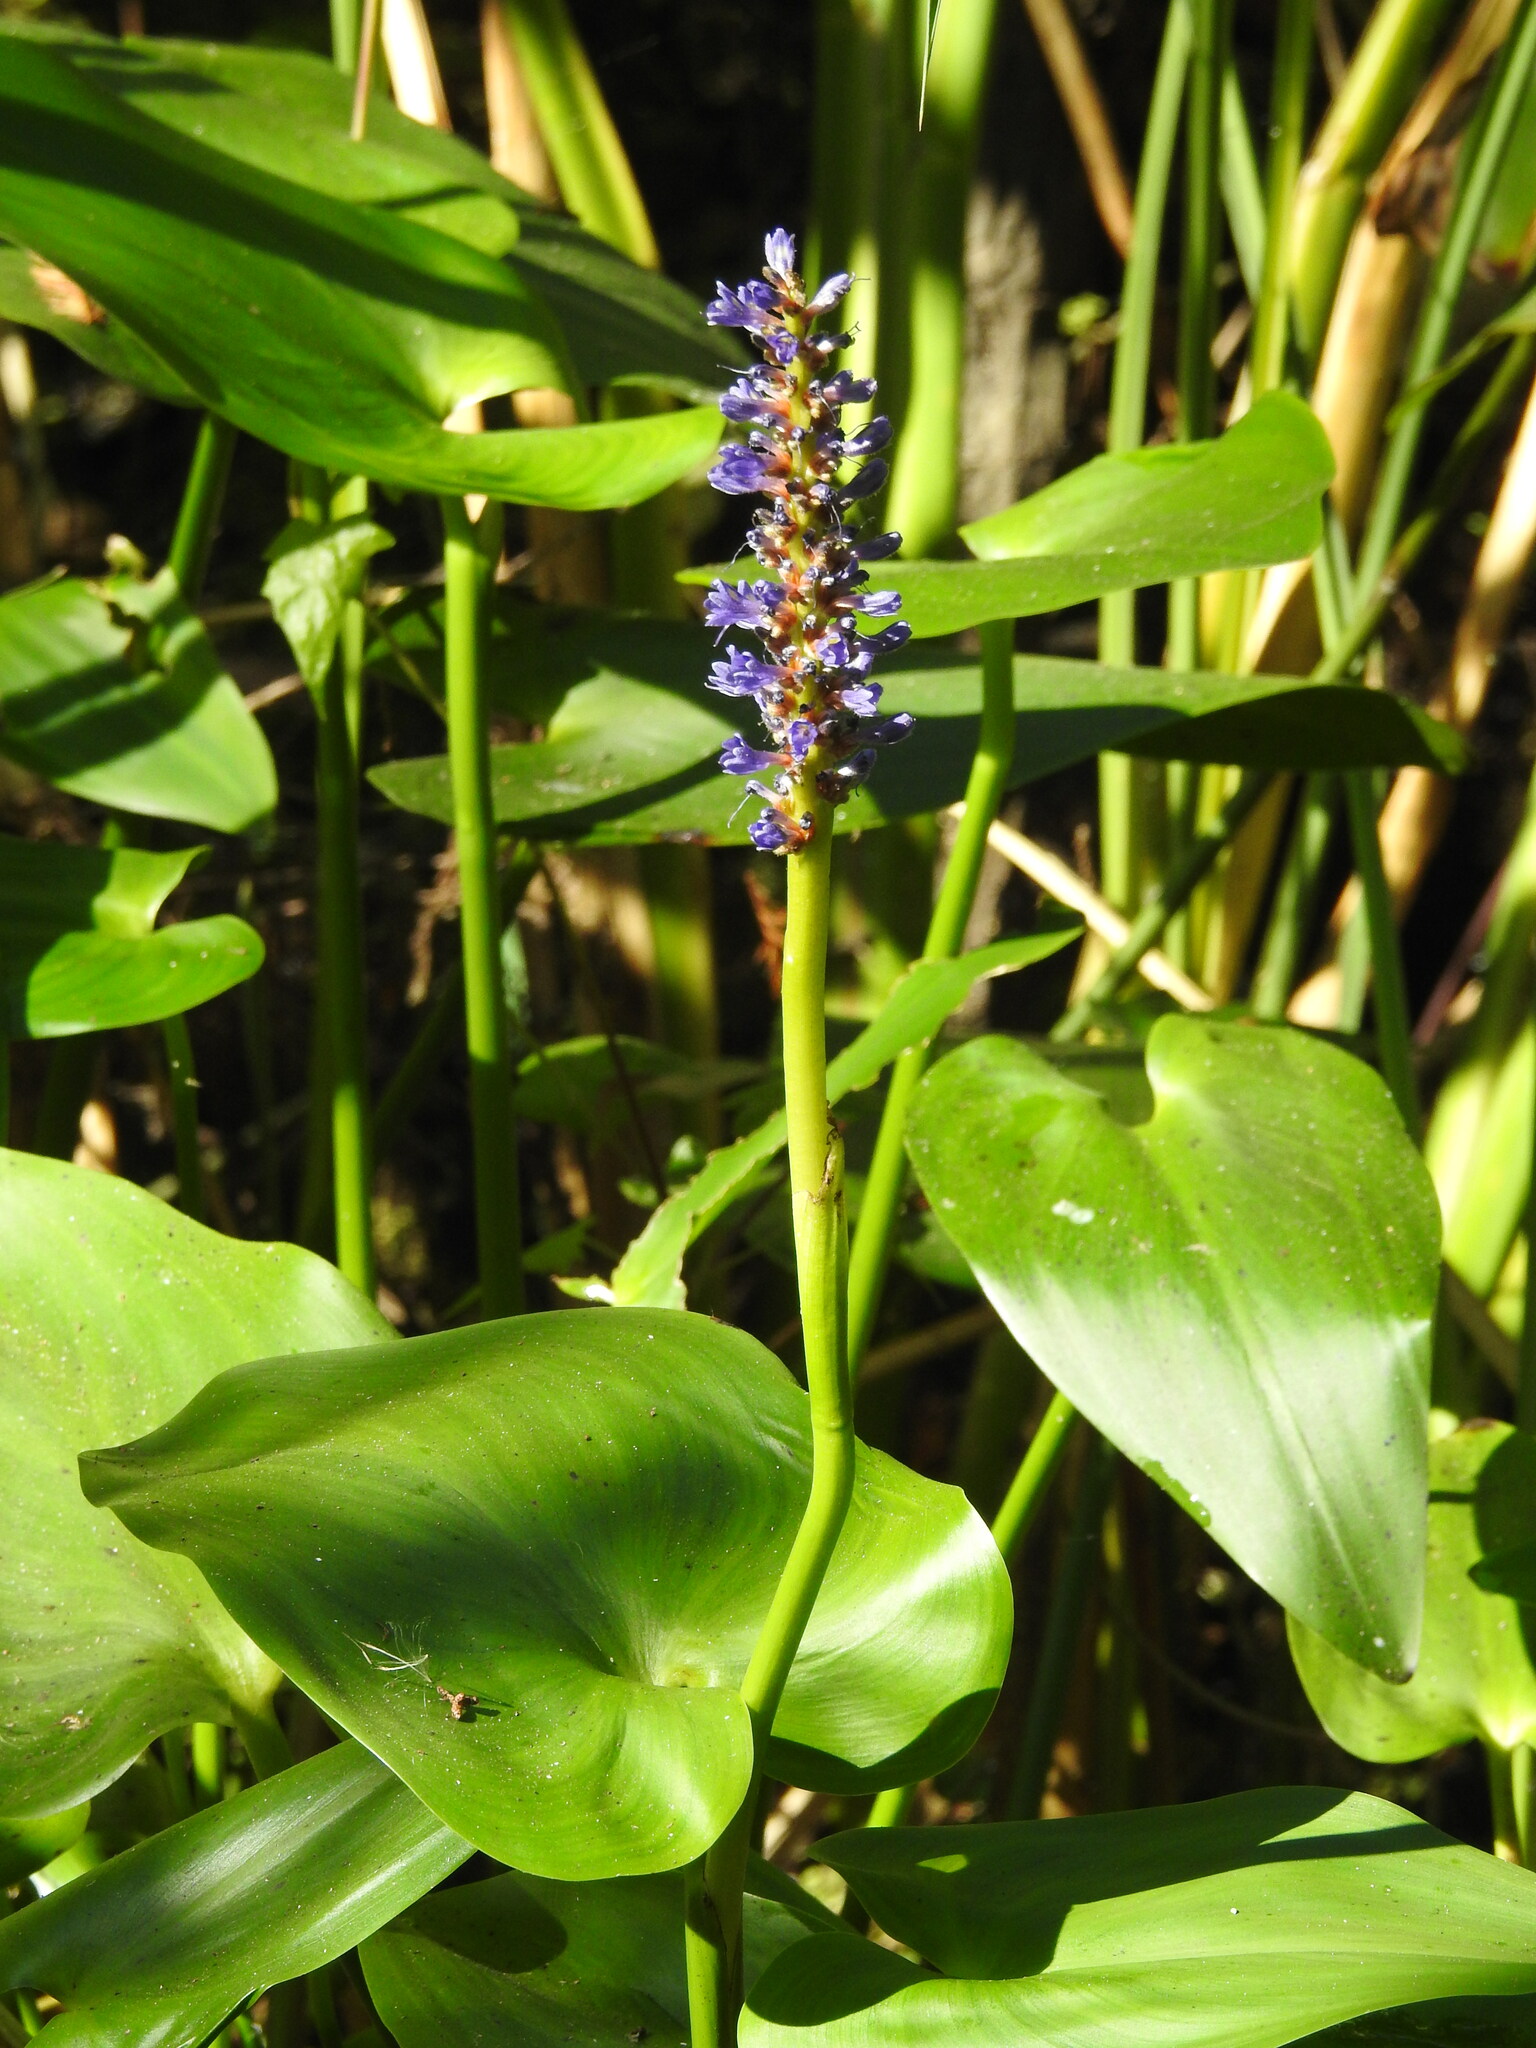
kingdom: Plantae
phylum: Tracheophyta
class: Liliopsida
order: Commelinales
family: Pontederiaceae
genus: Pontederia
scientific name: Pontederia cordata
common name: Pickerelweed
